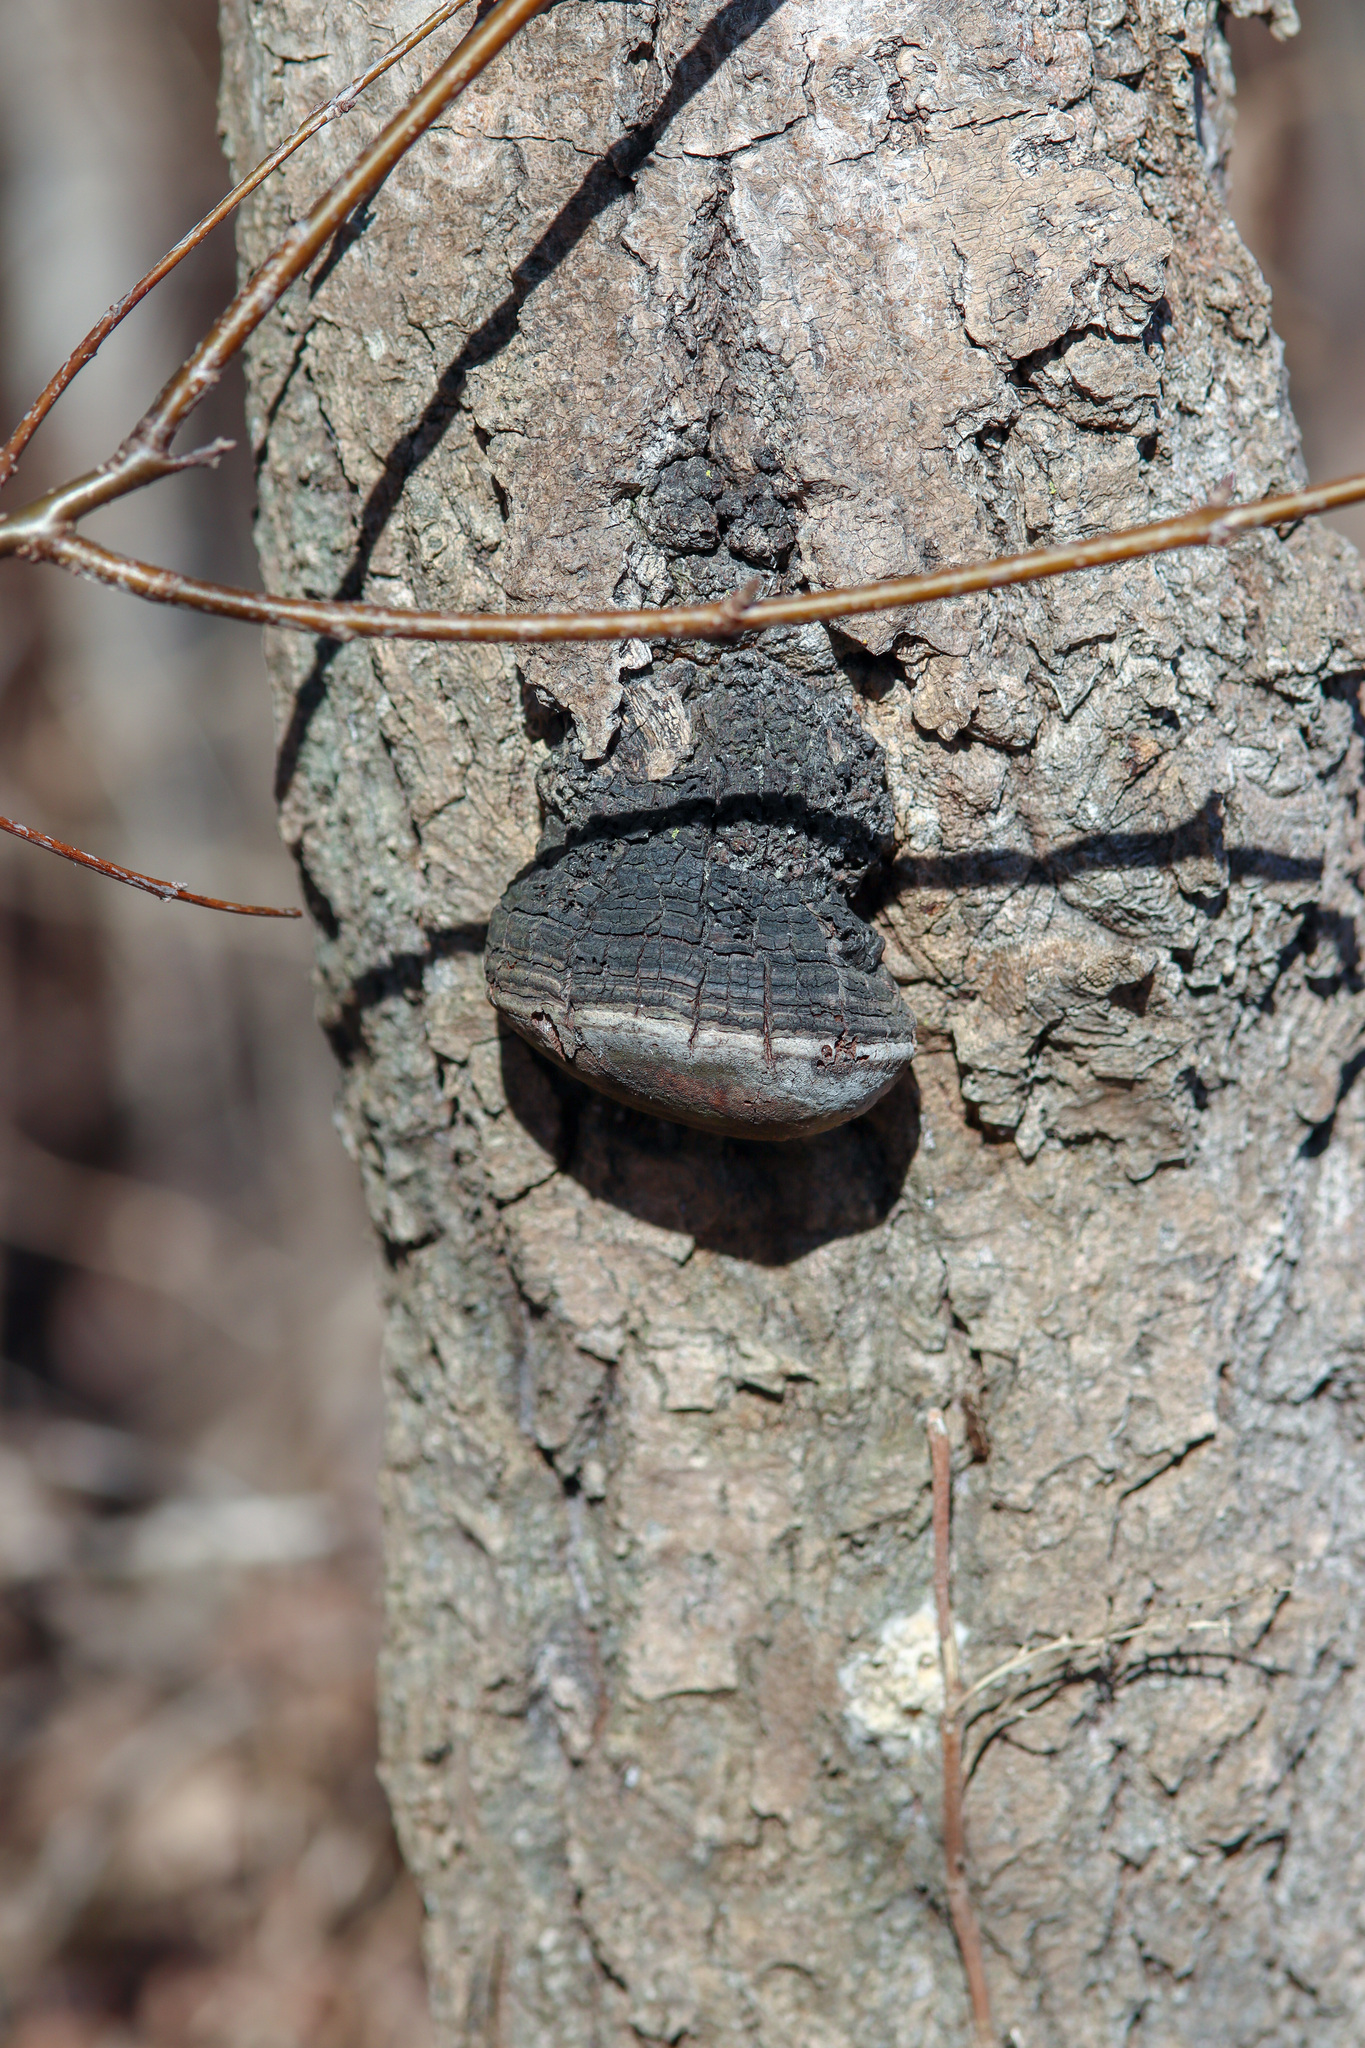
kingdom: Fungi
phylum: Basidiomycota
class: Agaricomycetes
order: Hymenochaetales
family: Hymenochaetaceae
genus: Phellinus
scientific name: Phellinus tremulae
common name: Aspen bracket
